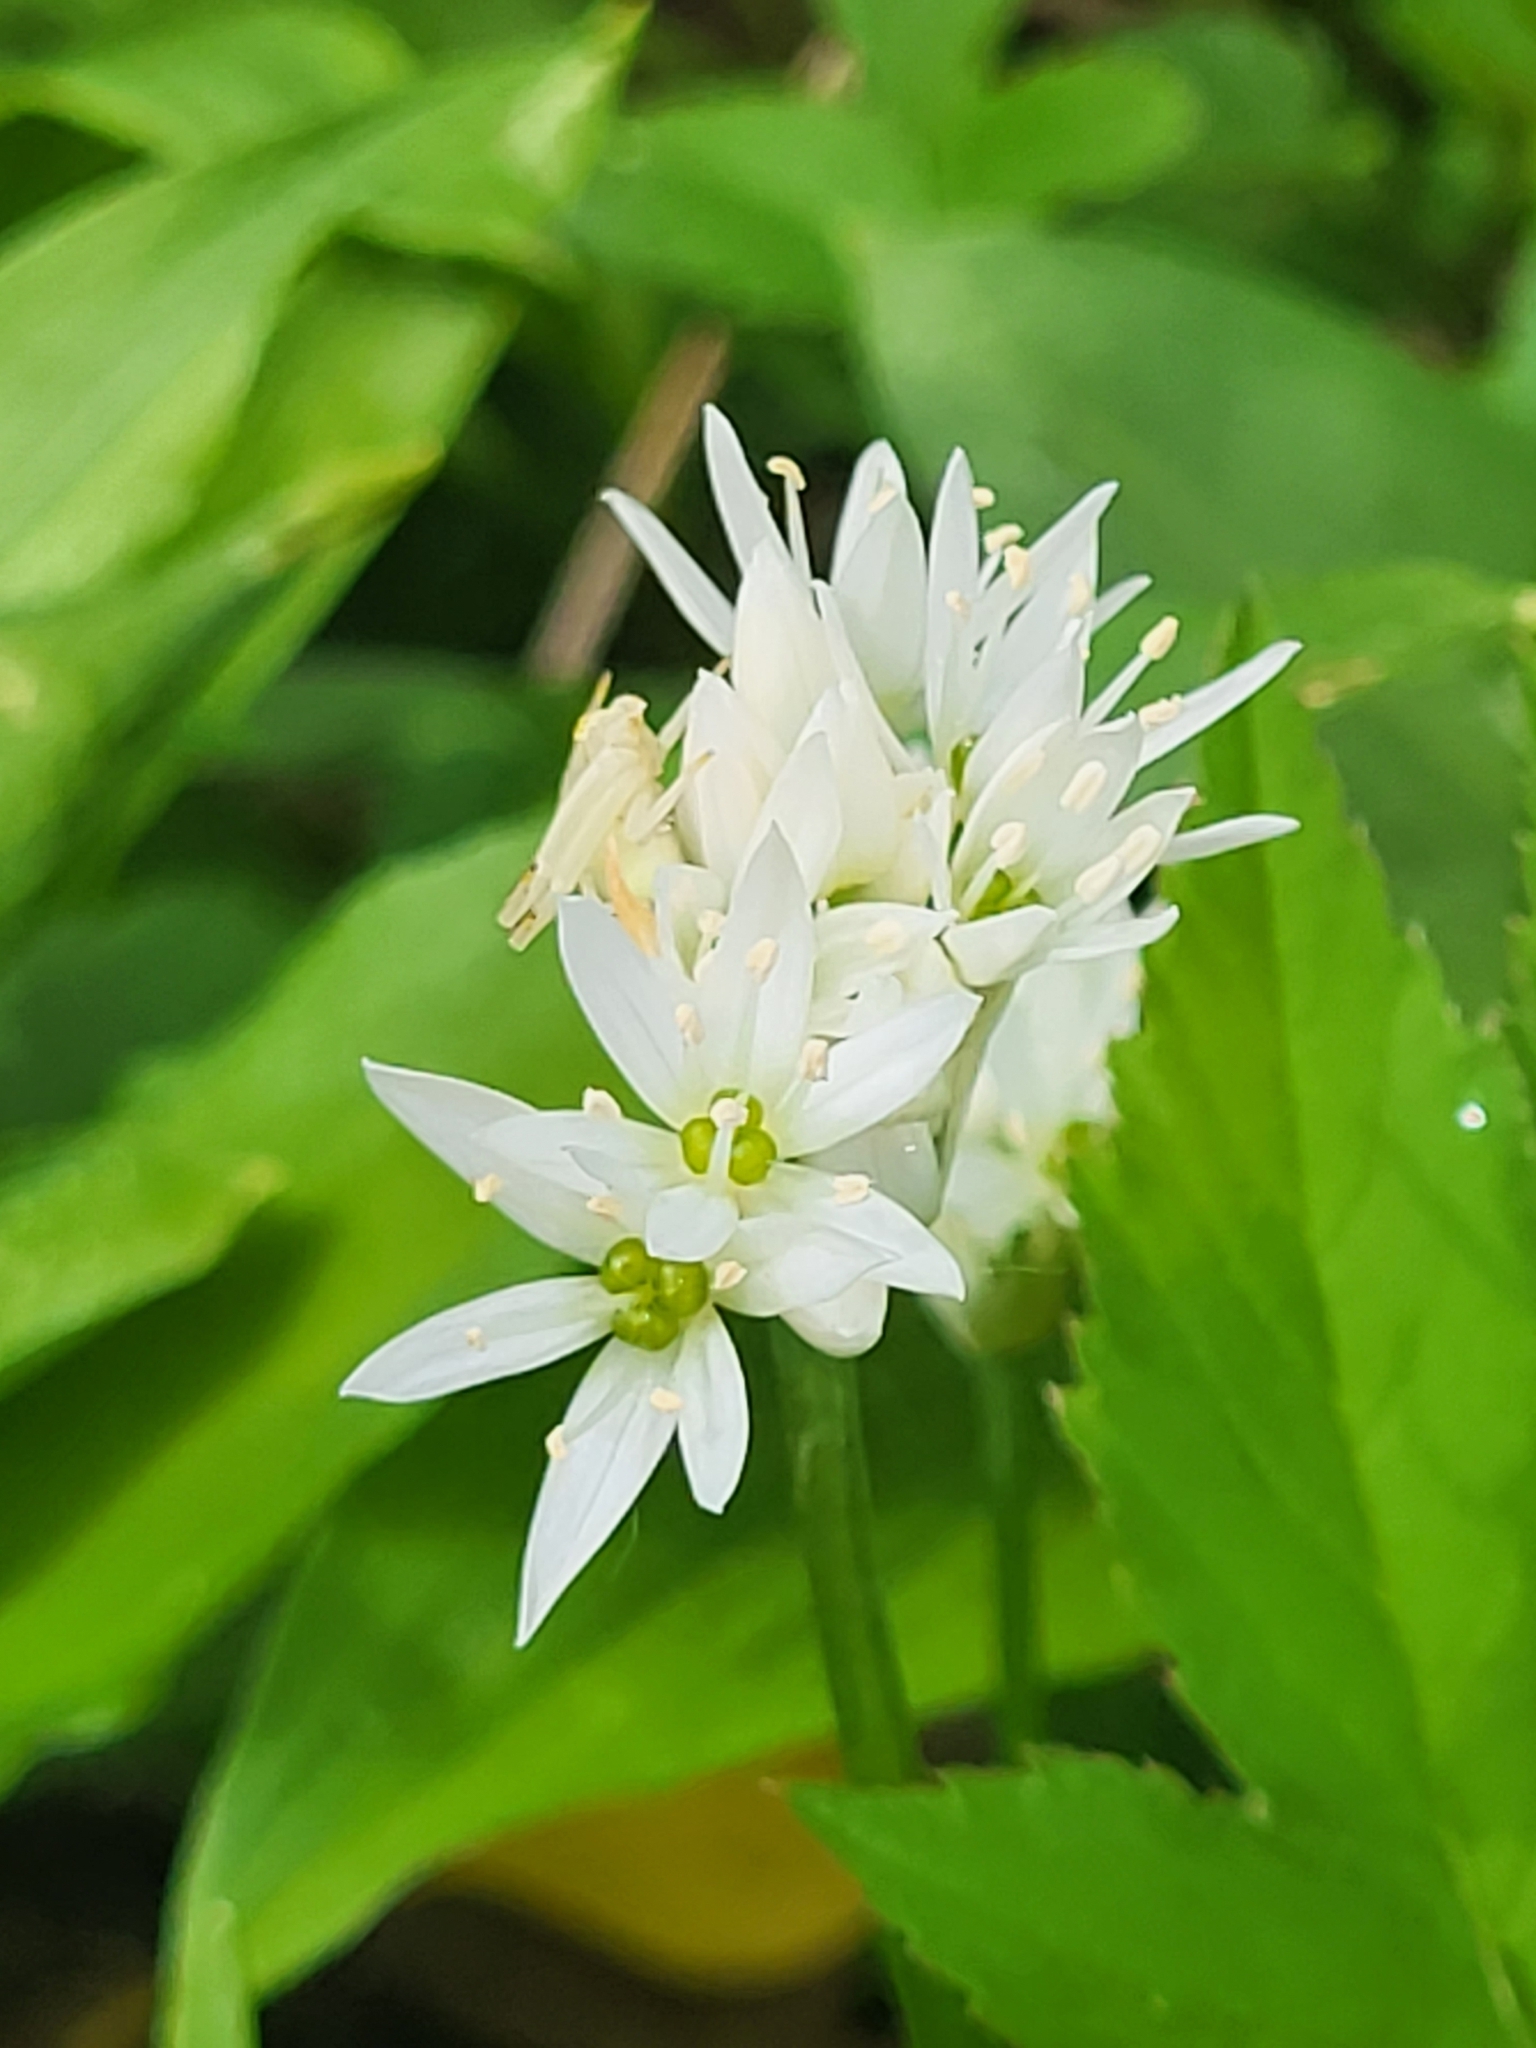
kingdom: Plantae
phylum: Tracheophyta
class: Liliopsida
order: Asparagales
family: Amaryllidaceae
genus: Allium
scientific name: Allium ursinum
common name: Ramsons
